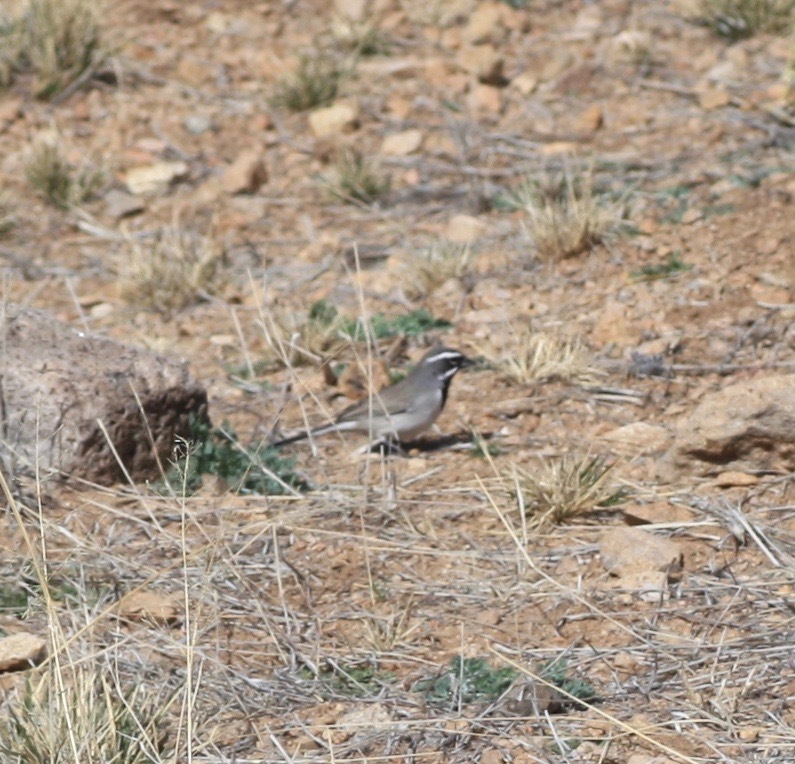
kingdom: Animalia
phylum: Chordata
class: Aves
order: Passeriformes
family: Passerellidae
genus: Amphispiza
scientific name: Amphispiza bilineata
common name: Black-throated sparrow
